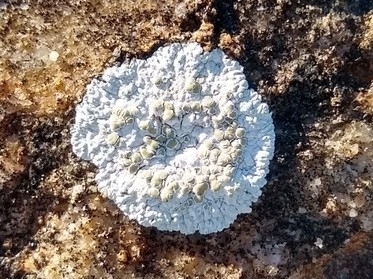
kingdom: Fungi
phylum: Ascomycota
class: Lecanoromycetes
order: Lecanorales
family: Lecanoraceae
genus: Protoparmeliopsis
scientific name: Protoparmeliopsis muralis
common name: Stonewall rim lichen
